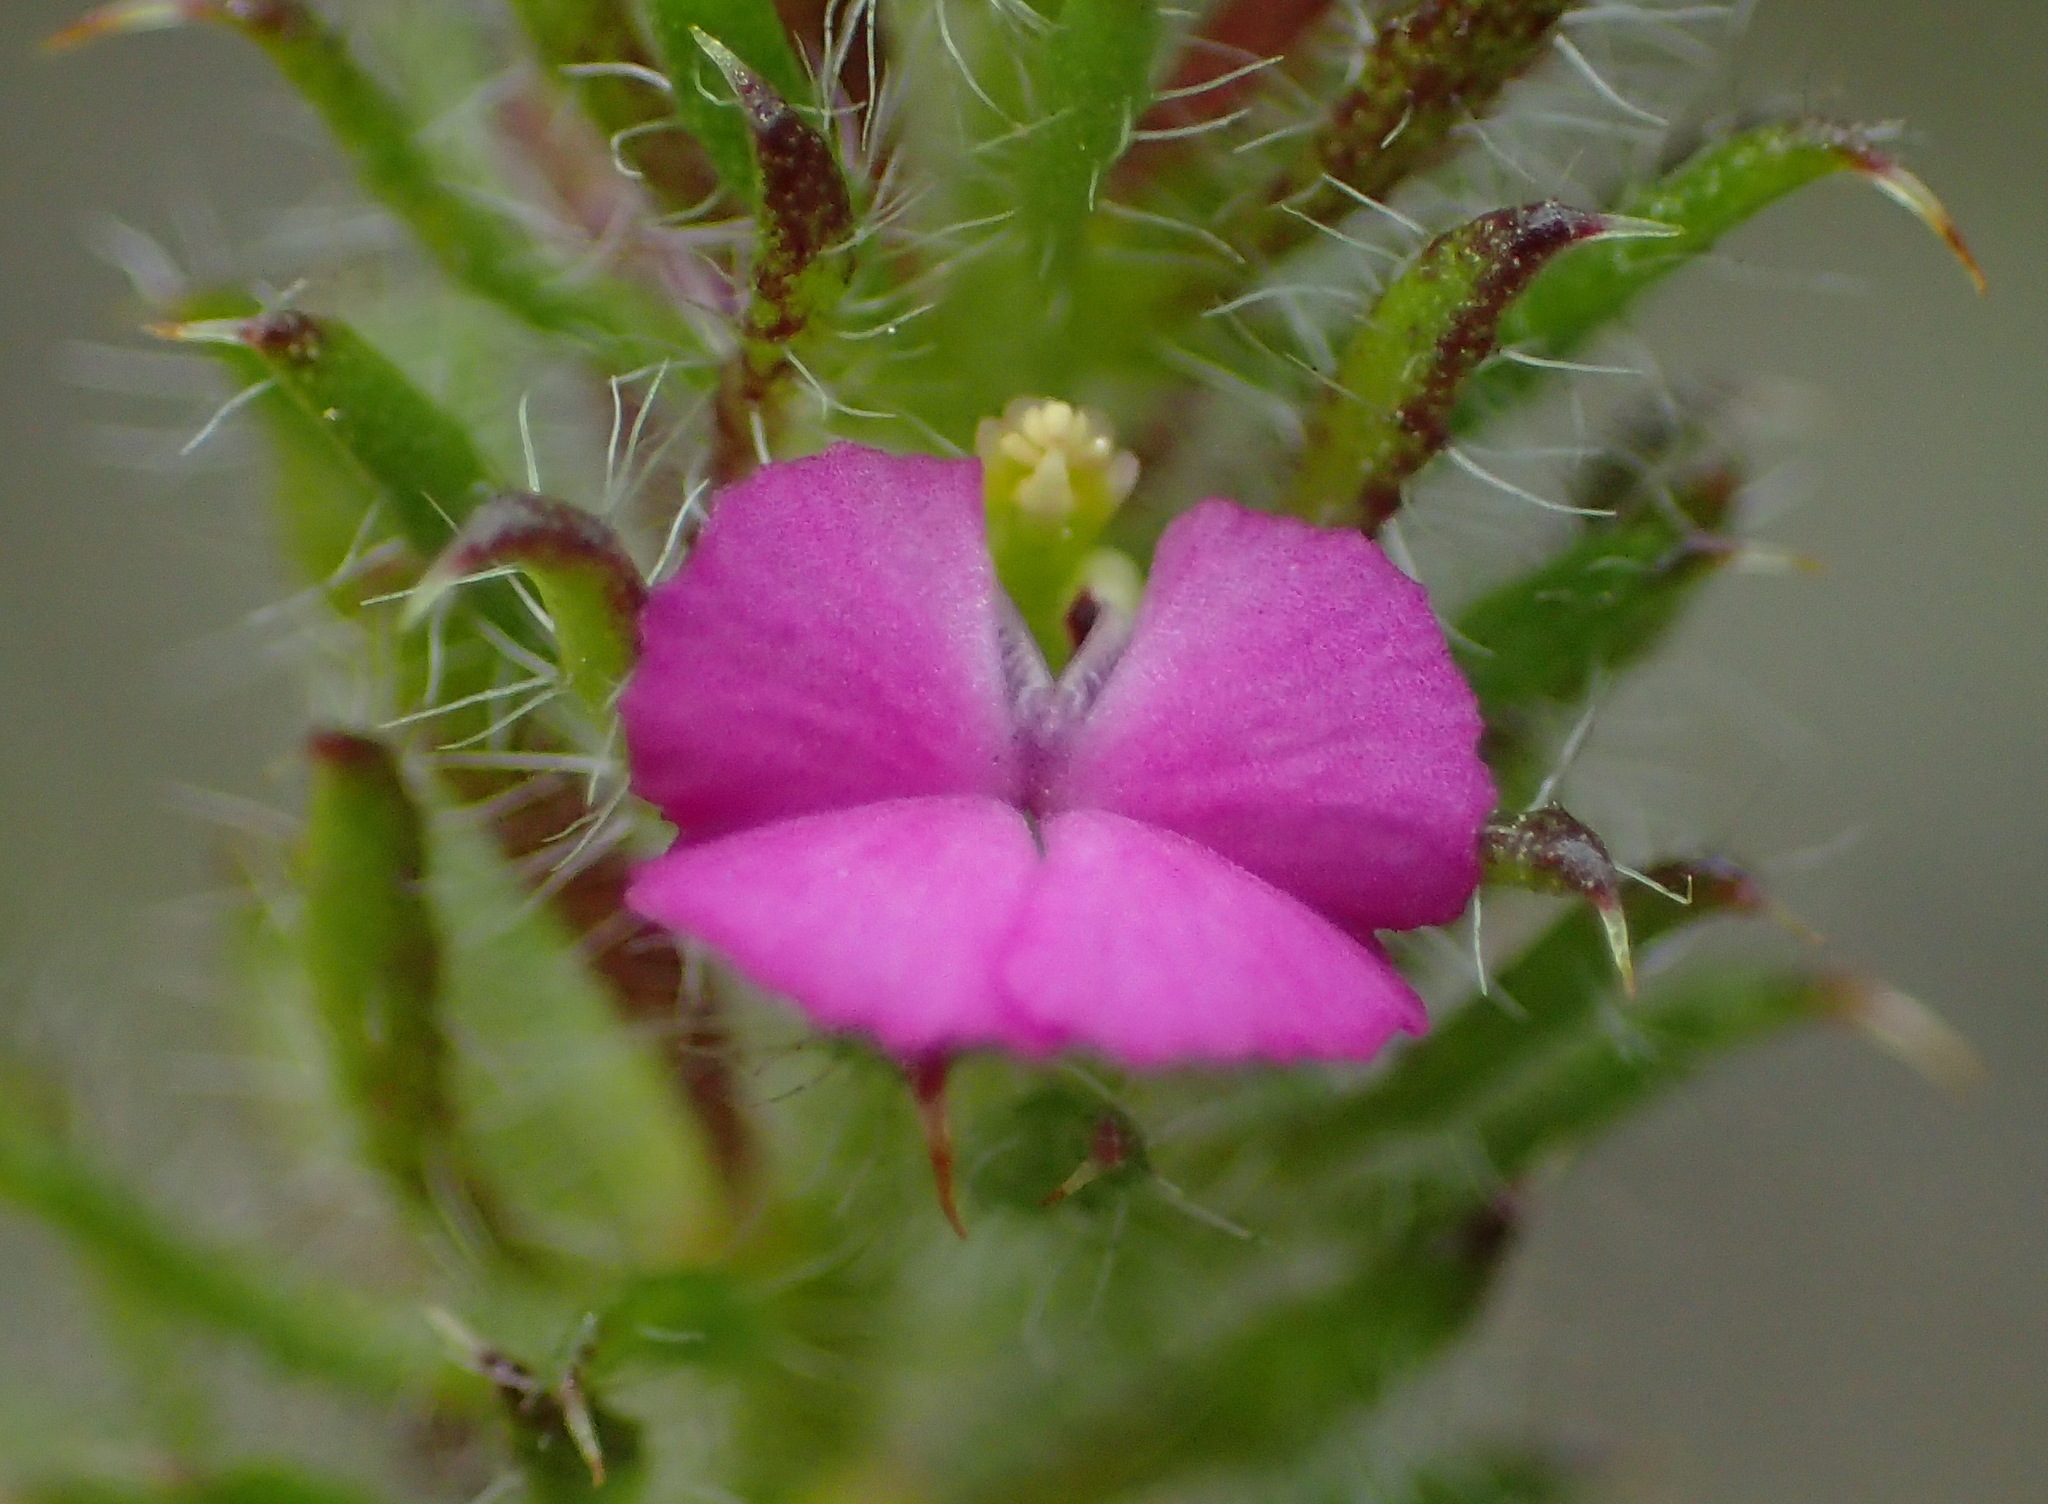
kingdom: Plantae
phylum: Tracheophyta
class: Magnoliopsida
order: Fabales
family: Polygalaceae
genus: Muraltia
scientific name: Muraltia ciliaris
